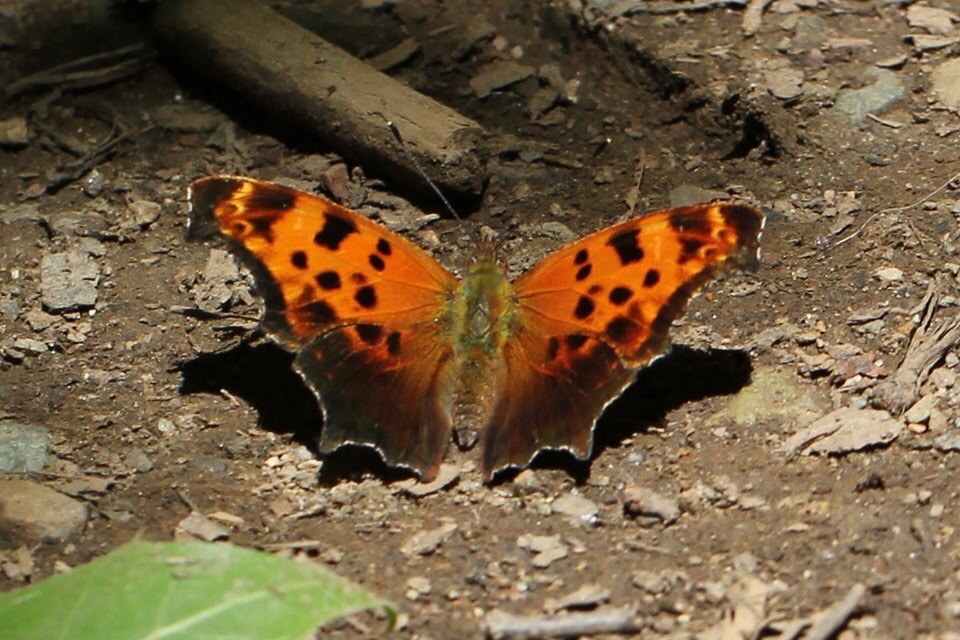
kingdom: Animalia
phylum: Arthropoda
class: Insecta
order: Lepidoptera
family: Nymphalidae
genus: Polygonia
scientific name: Polygonia comma
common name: Eastern comma
